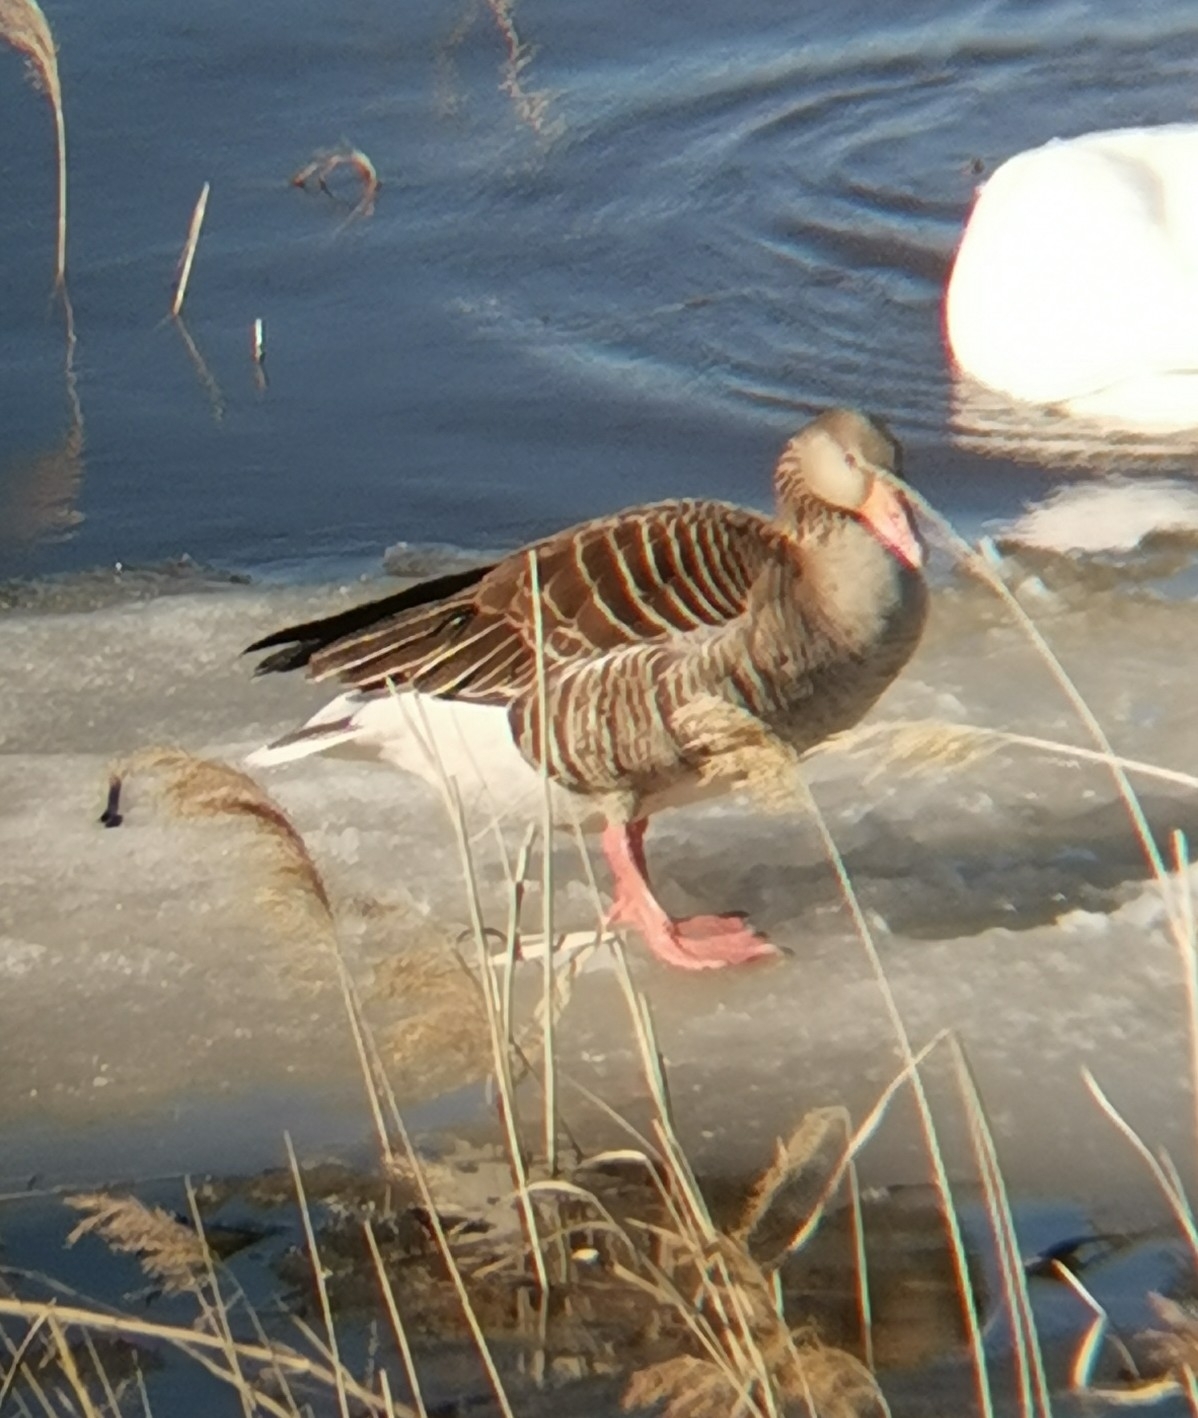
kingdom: Animalia
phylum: Chordata
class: Aves
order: Anseriformes
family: Anatidae
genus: Anser
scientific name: Anser anser
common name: Greylag goose
